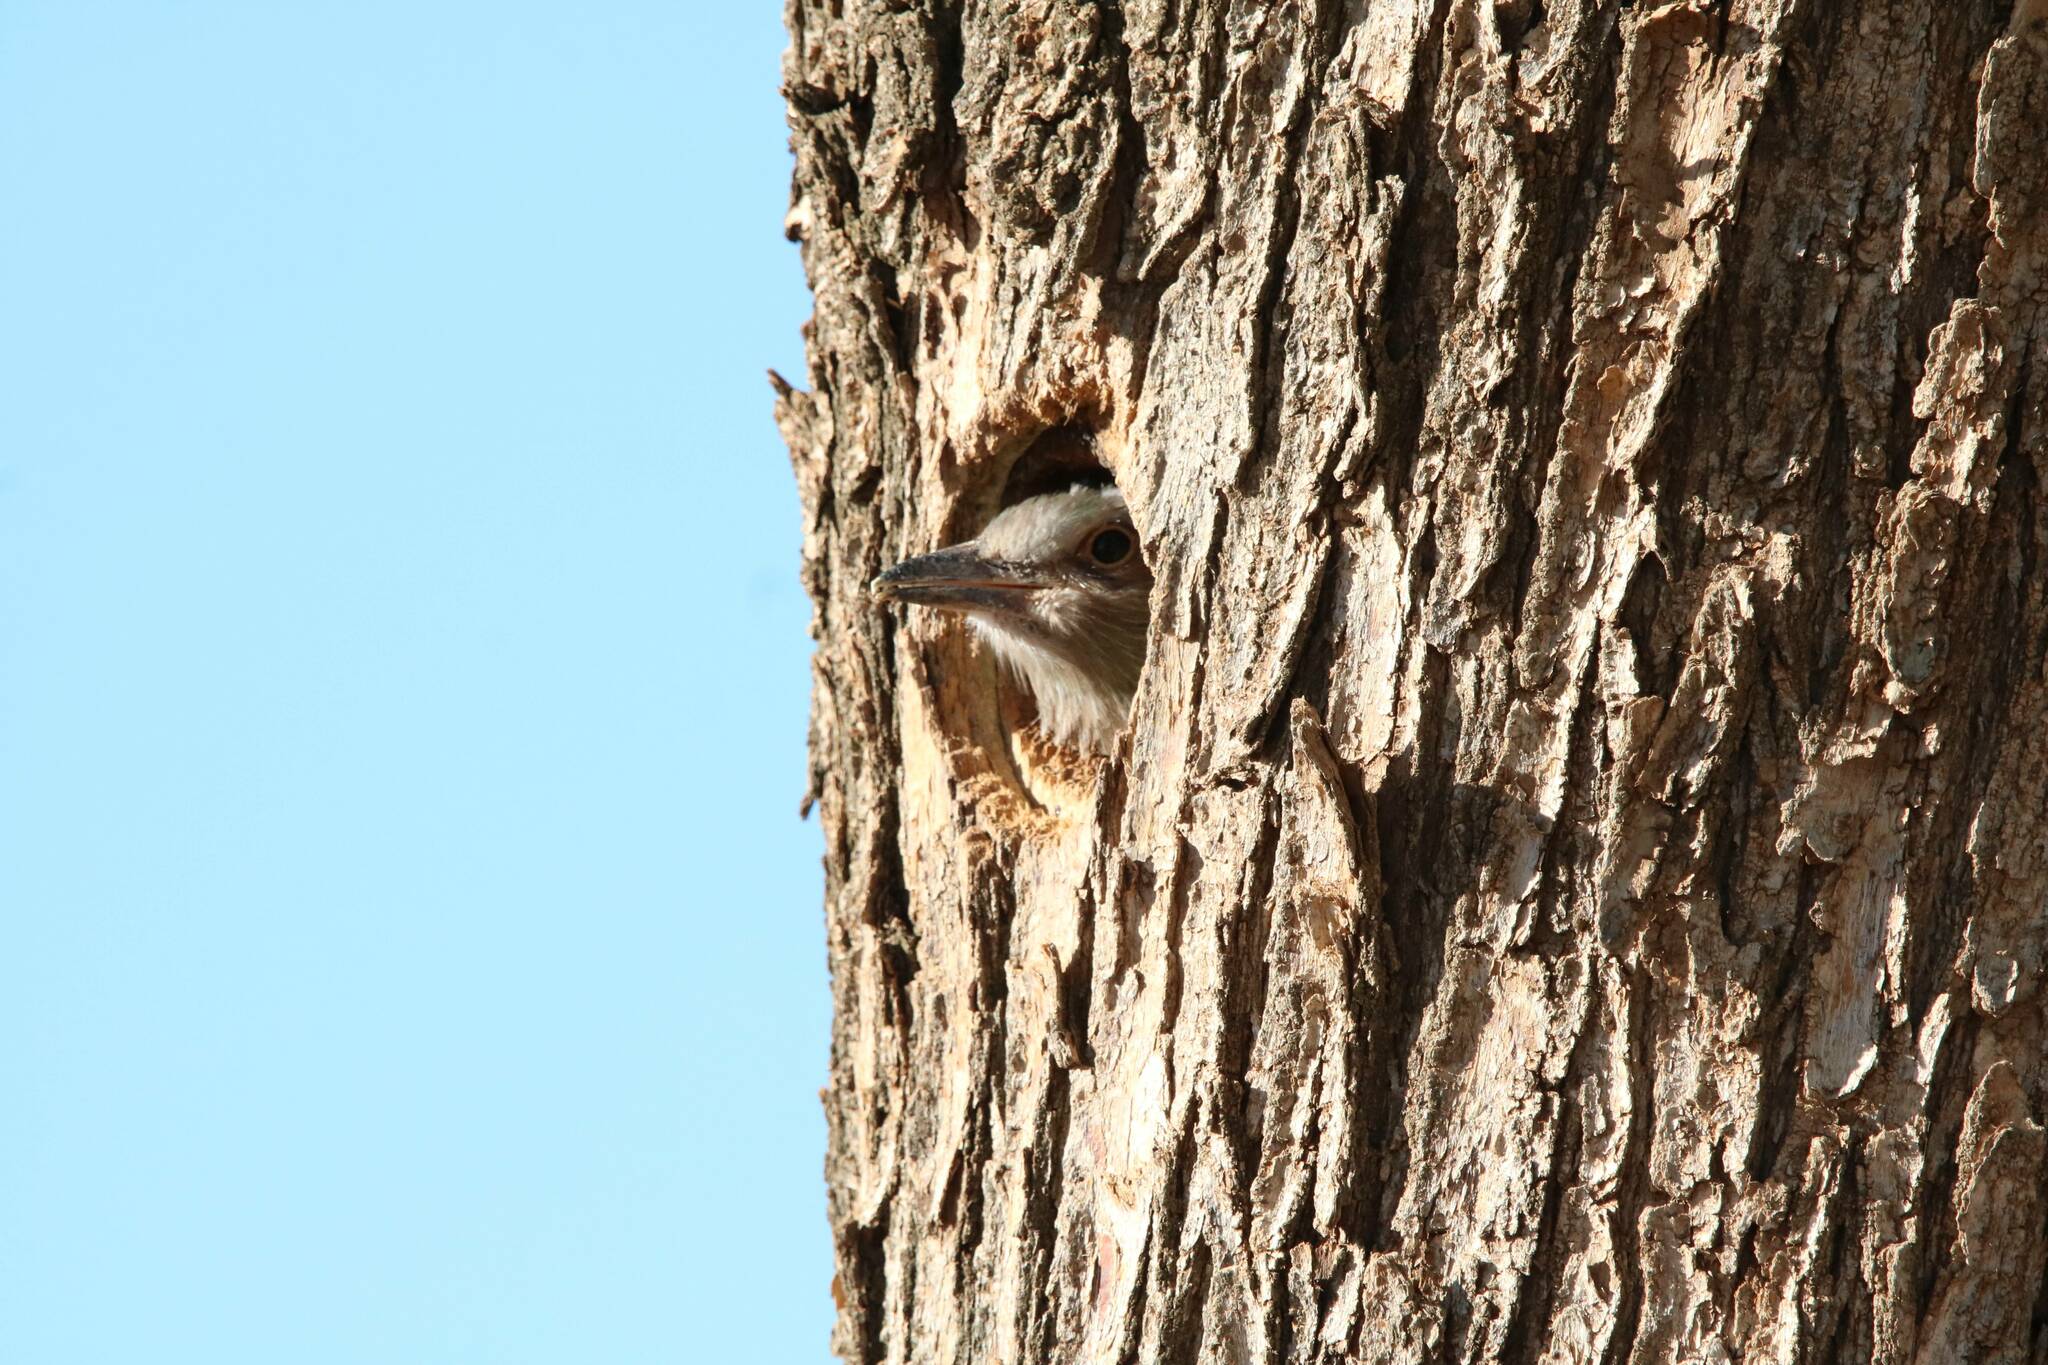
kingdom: Animalia
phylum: Chordata
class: Aves
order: Coraciiformes
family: Coraciidae
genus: Coracias
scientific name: Coracias garrulus
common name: European roller
